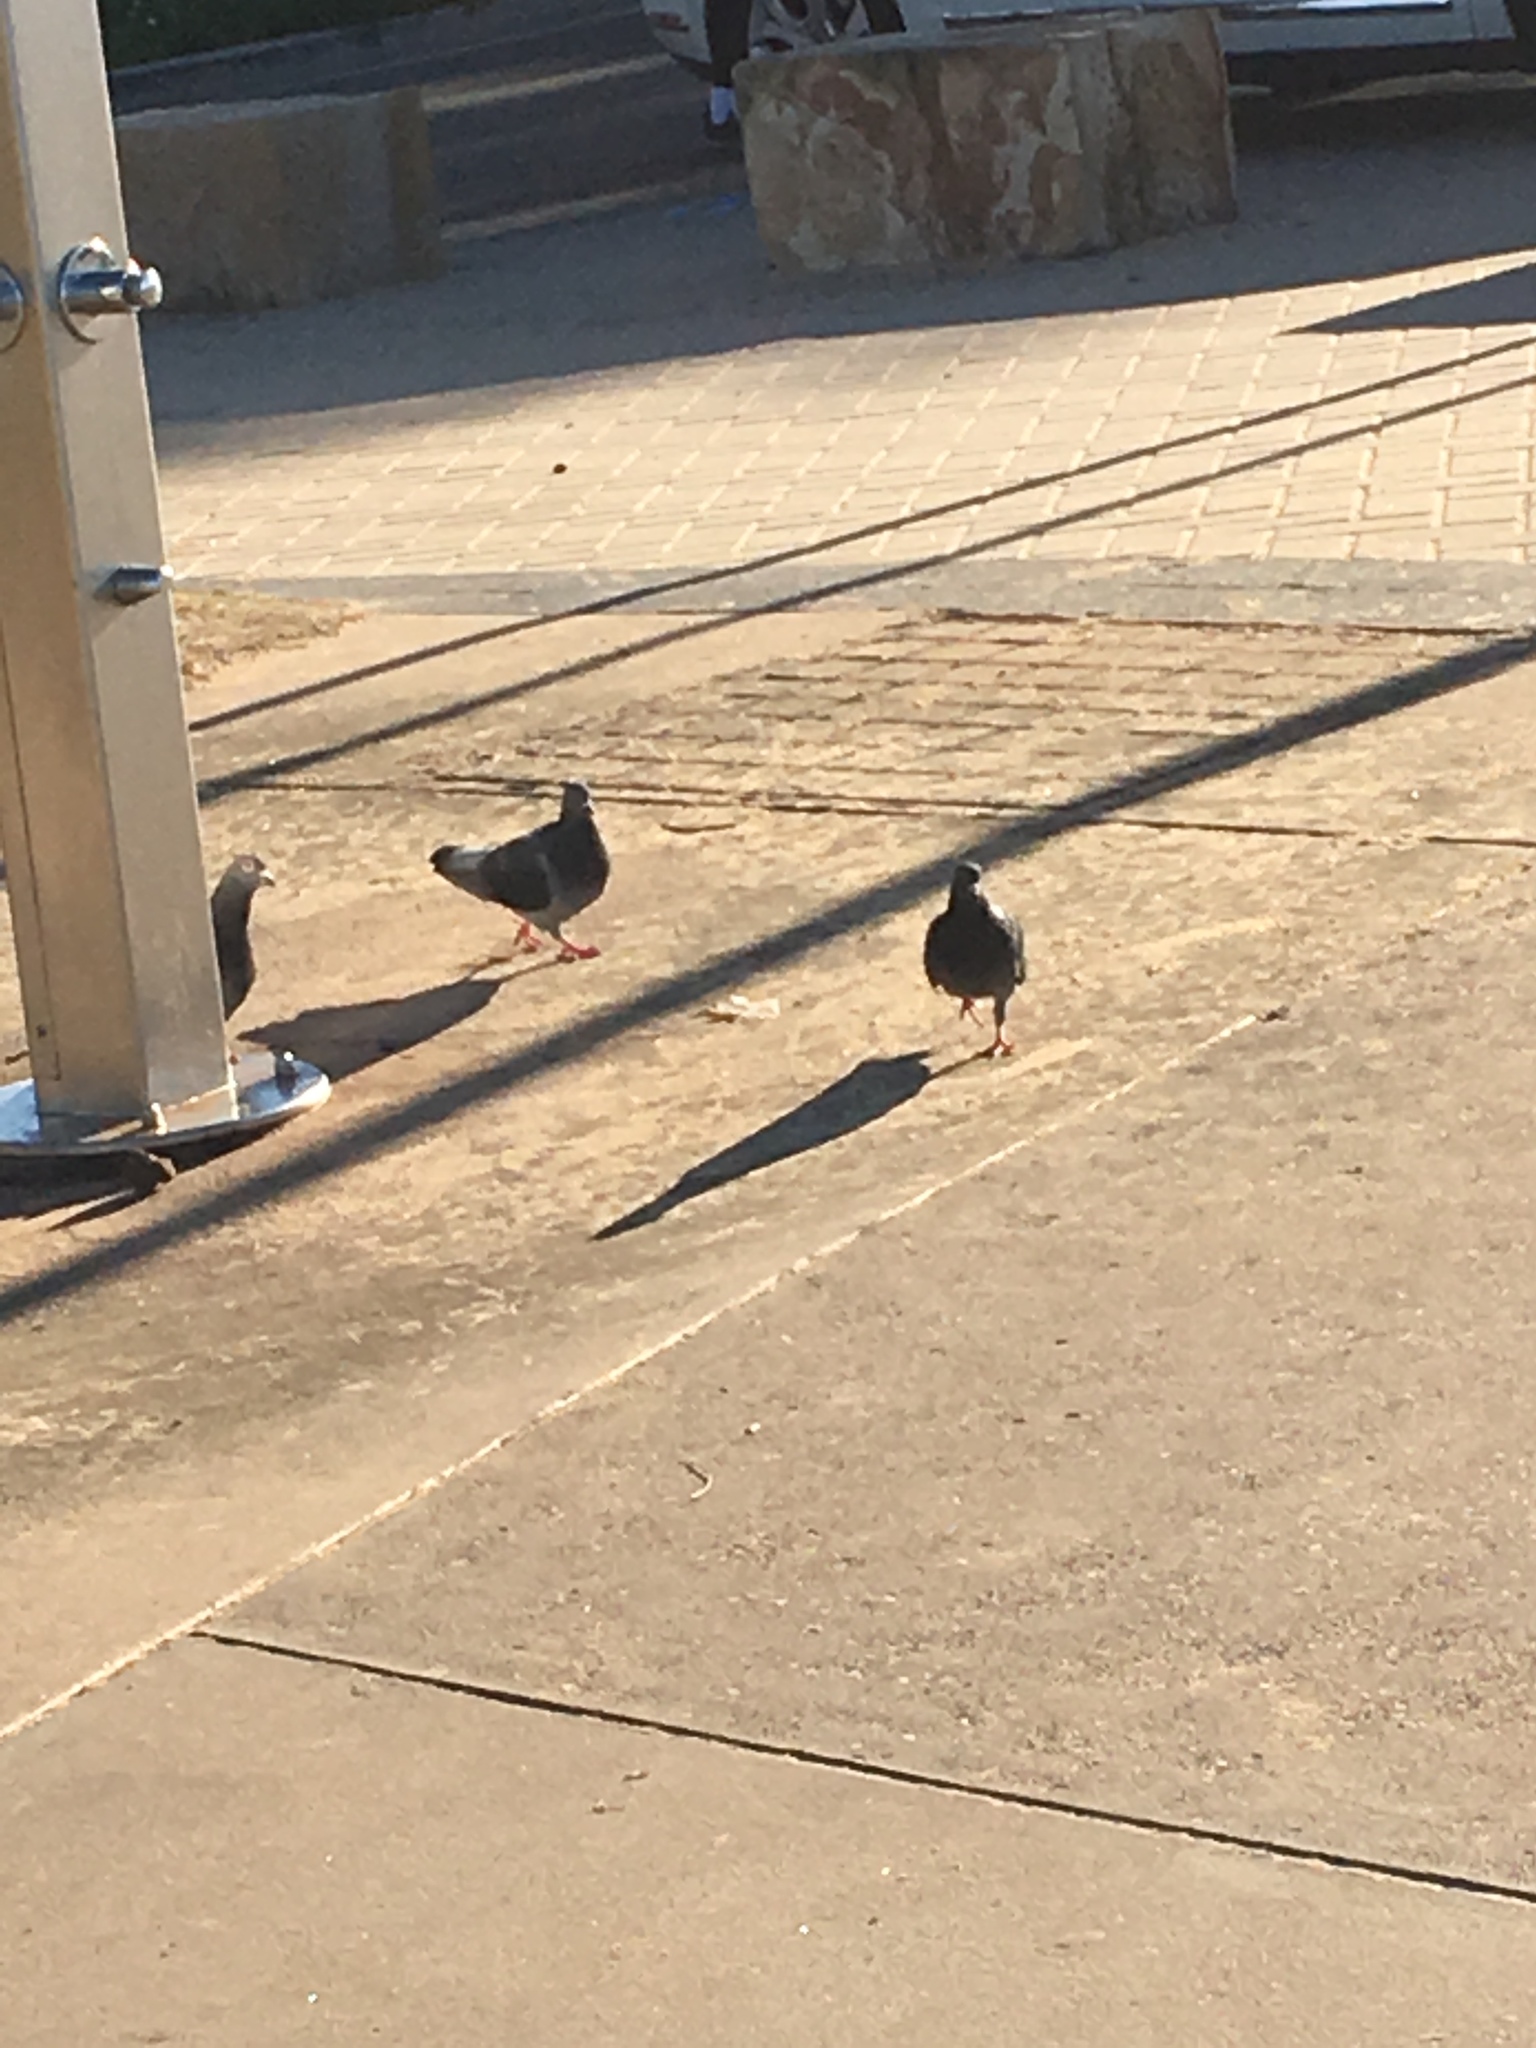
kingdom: Animalia
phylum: Chordata
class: Aves
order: Columbiformes
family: Columbidae
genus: Columba
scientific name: Columba livia
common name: Rock pigeon
